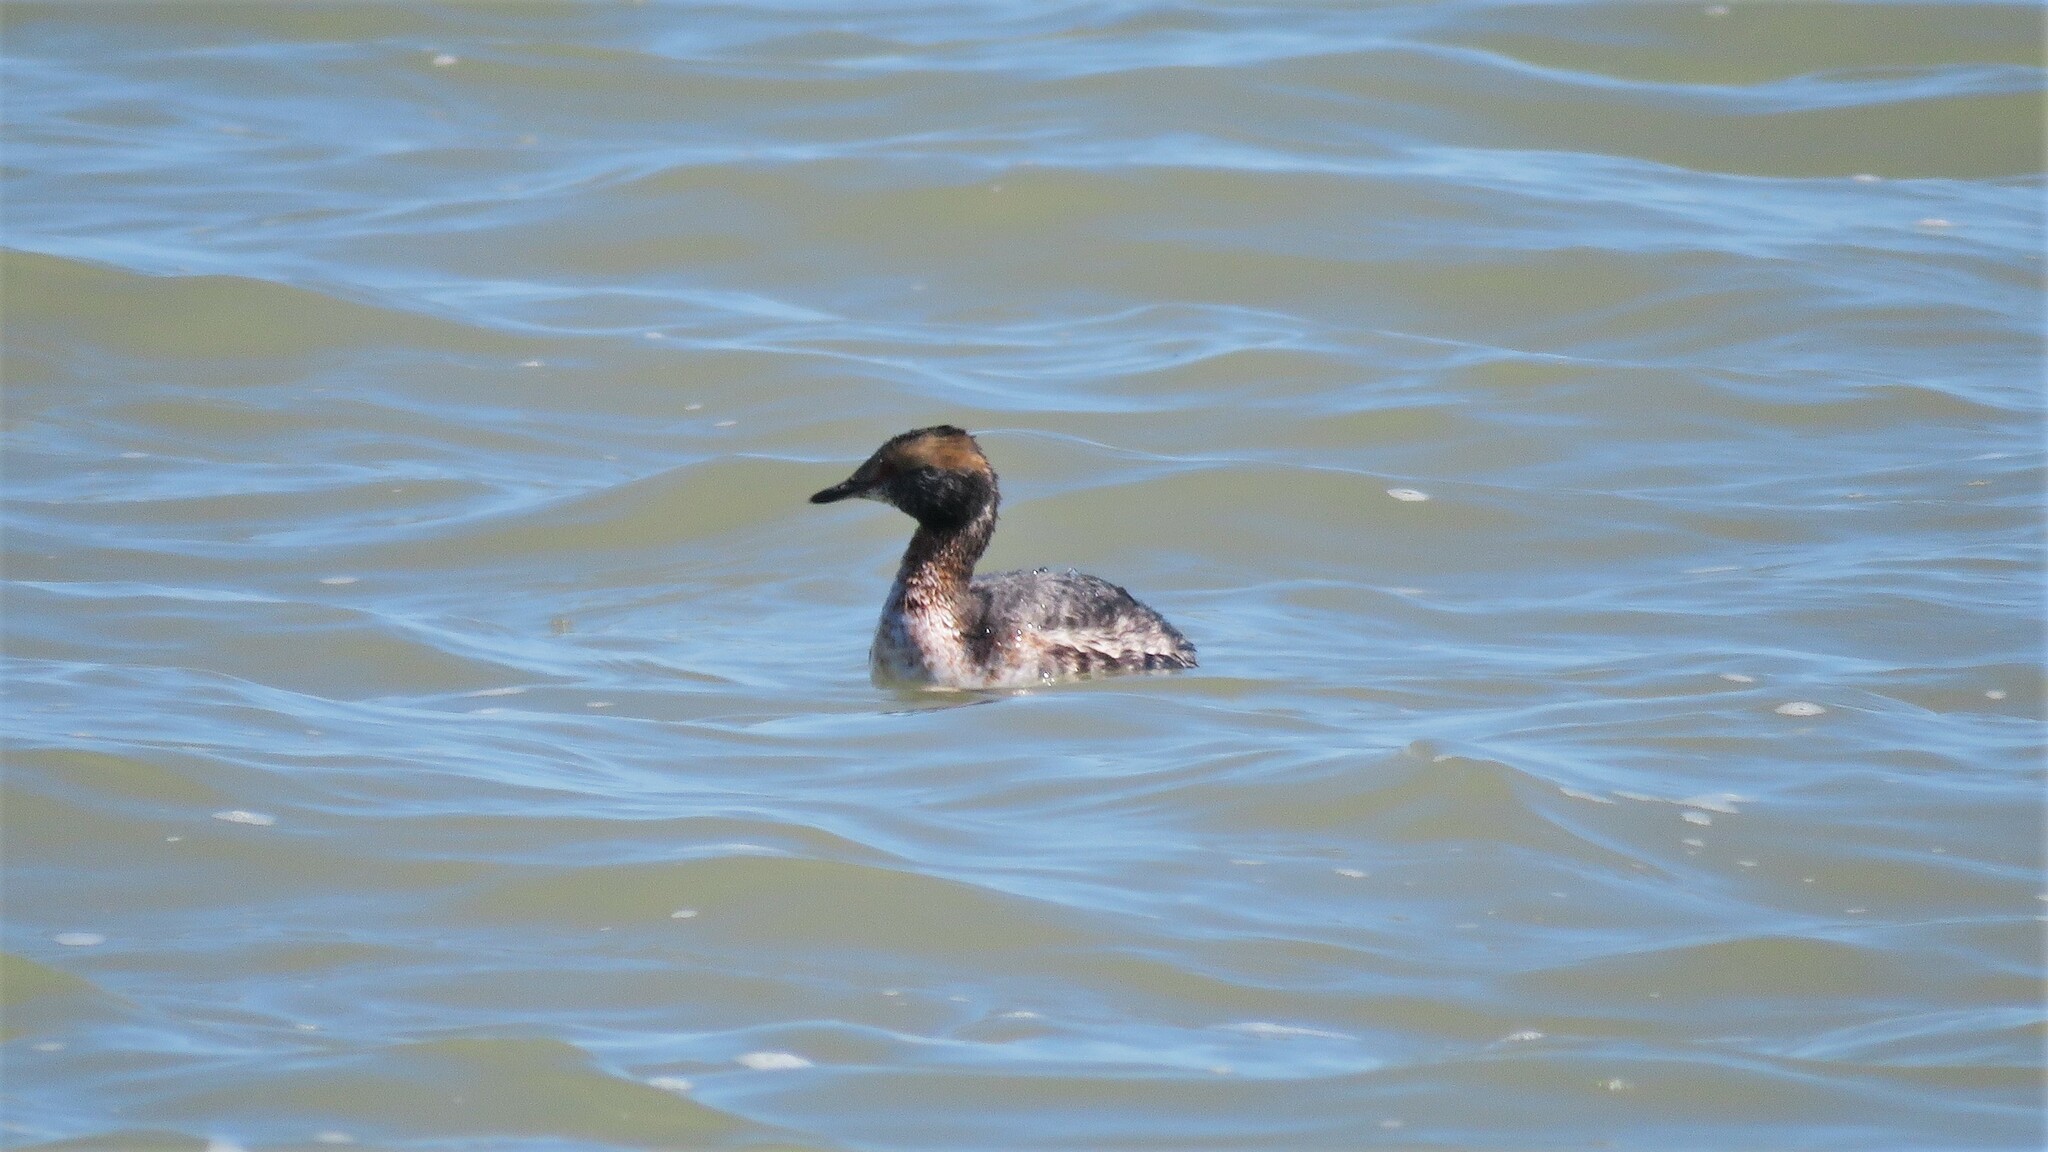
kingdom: Animalia
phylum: Chordata
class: Aves
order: Podicipediformes
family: Podicipedidae
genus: Podiceps
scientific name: Podiceps auritus
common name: Horned grebe
